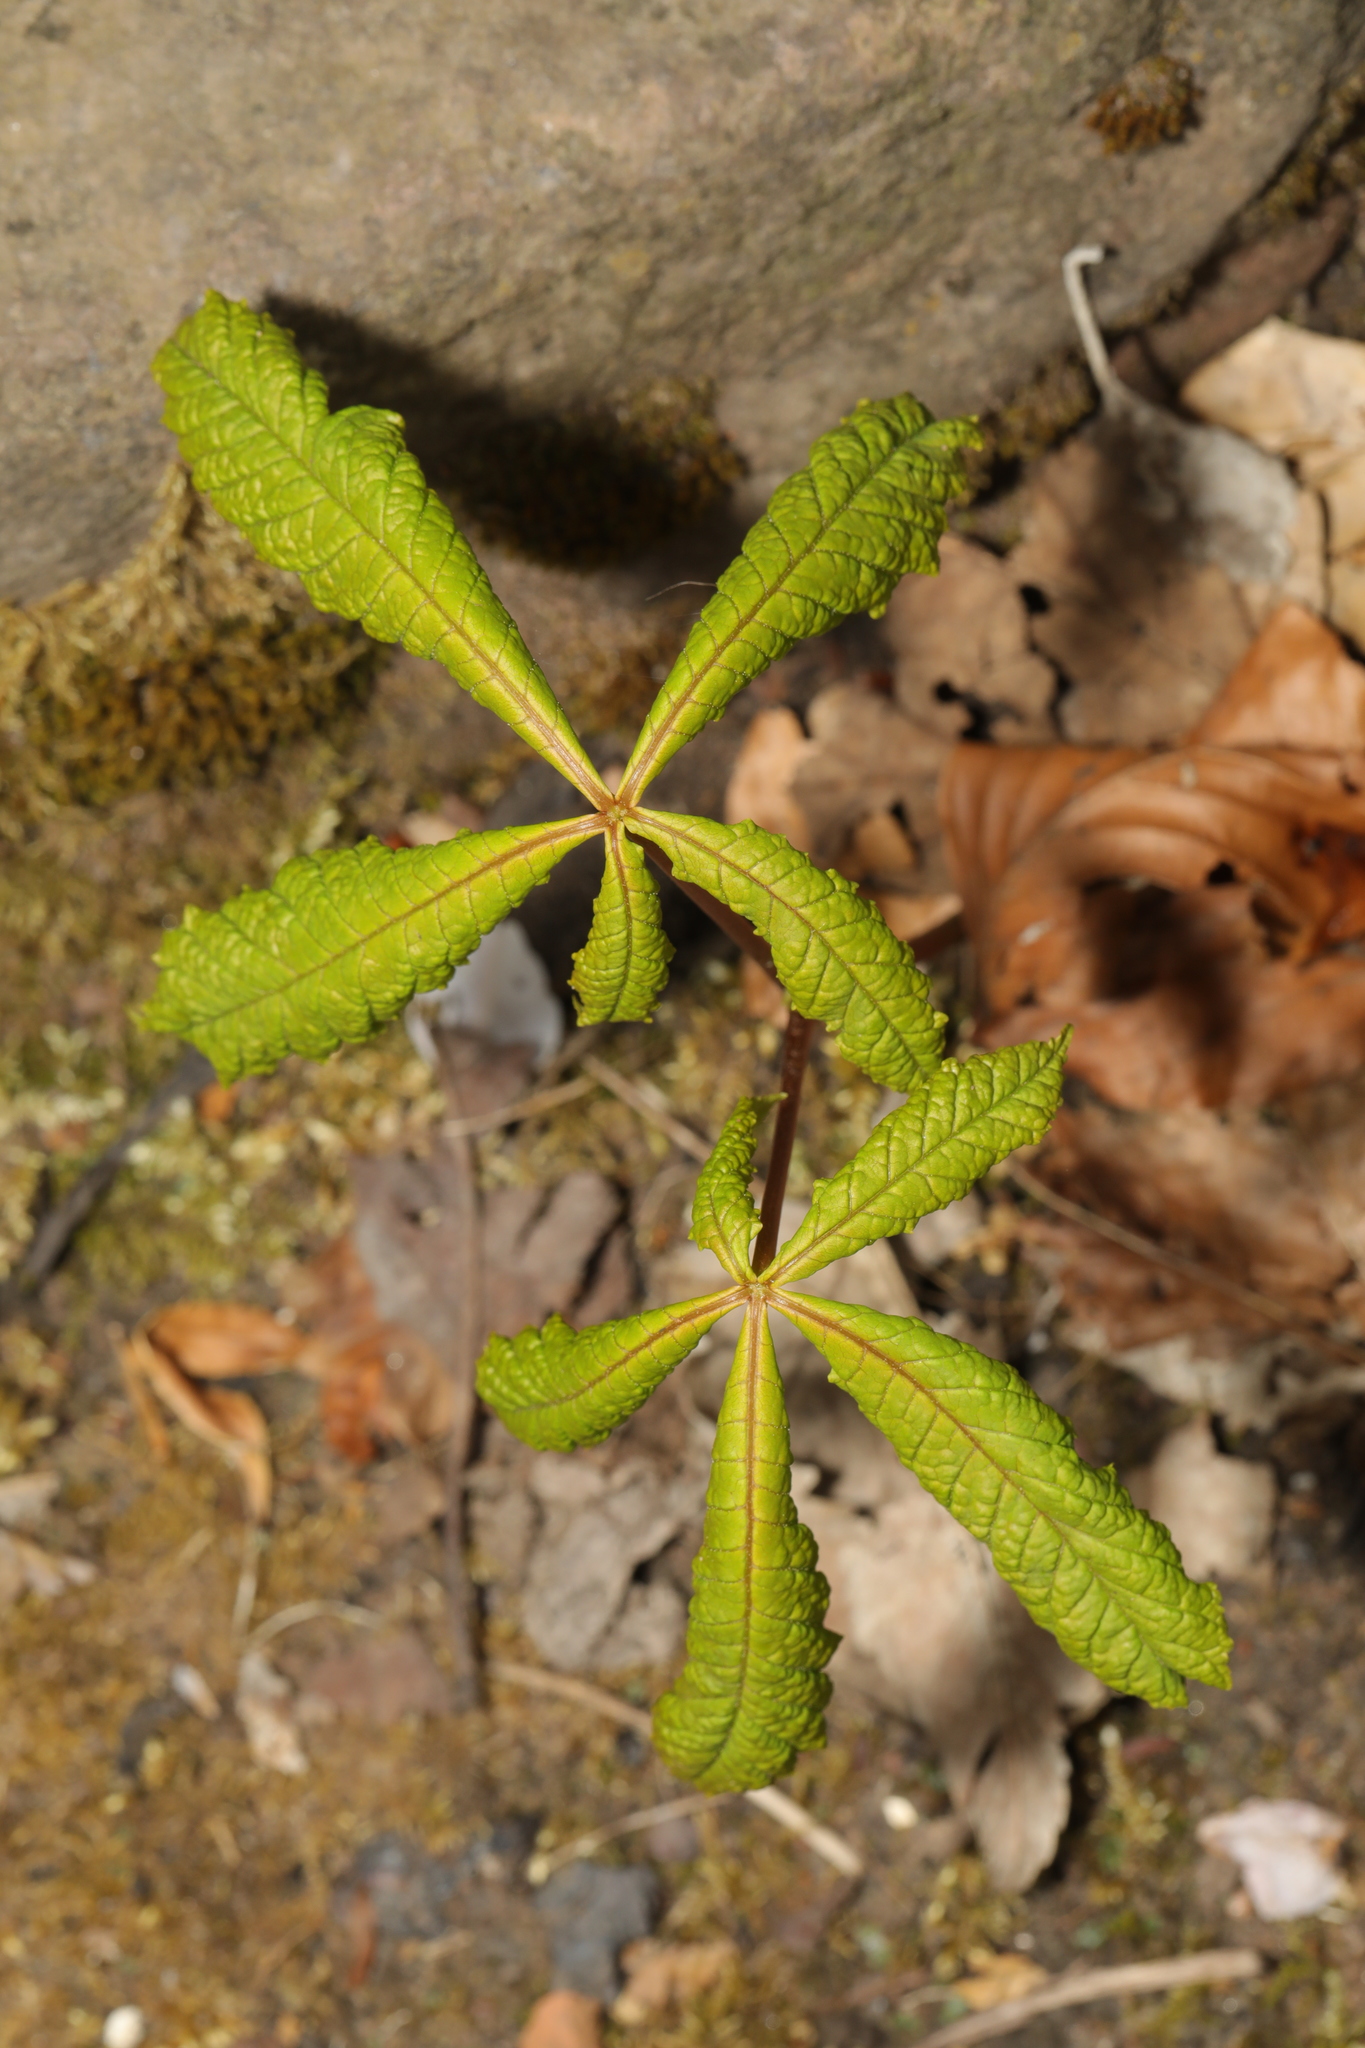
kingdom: Plantae
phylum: Tracheophyta
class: Magnoliopsida
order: Sapindales
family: Sapindaceae
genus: Aesculus
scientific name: Aesculus hippocastanum
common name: Horse-chestnut
